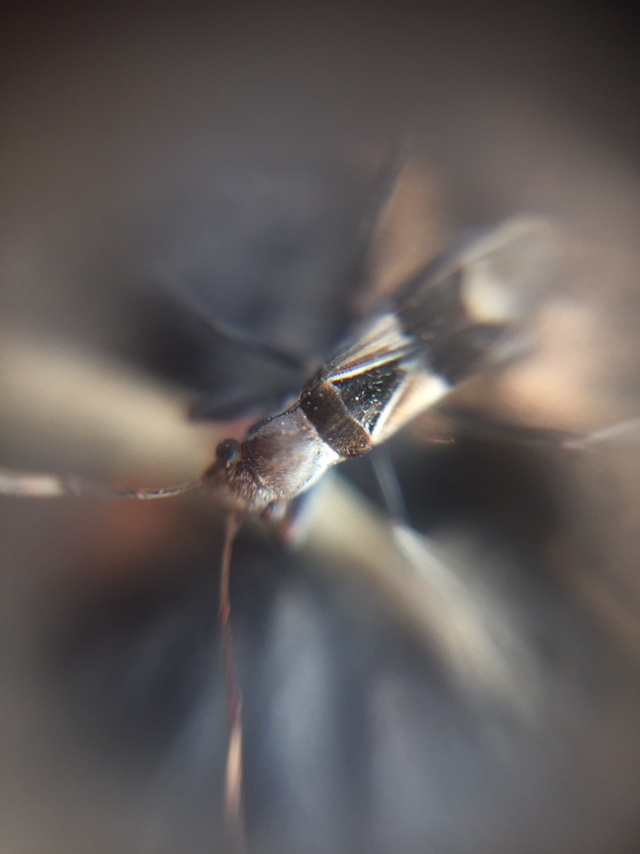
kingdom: Animalia
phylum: Arthropoda
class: Insecta
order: Hemiptera
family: Rhyparochromidae
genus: Poeantius
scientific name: Poeantius festivus
